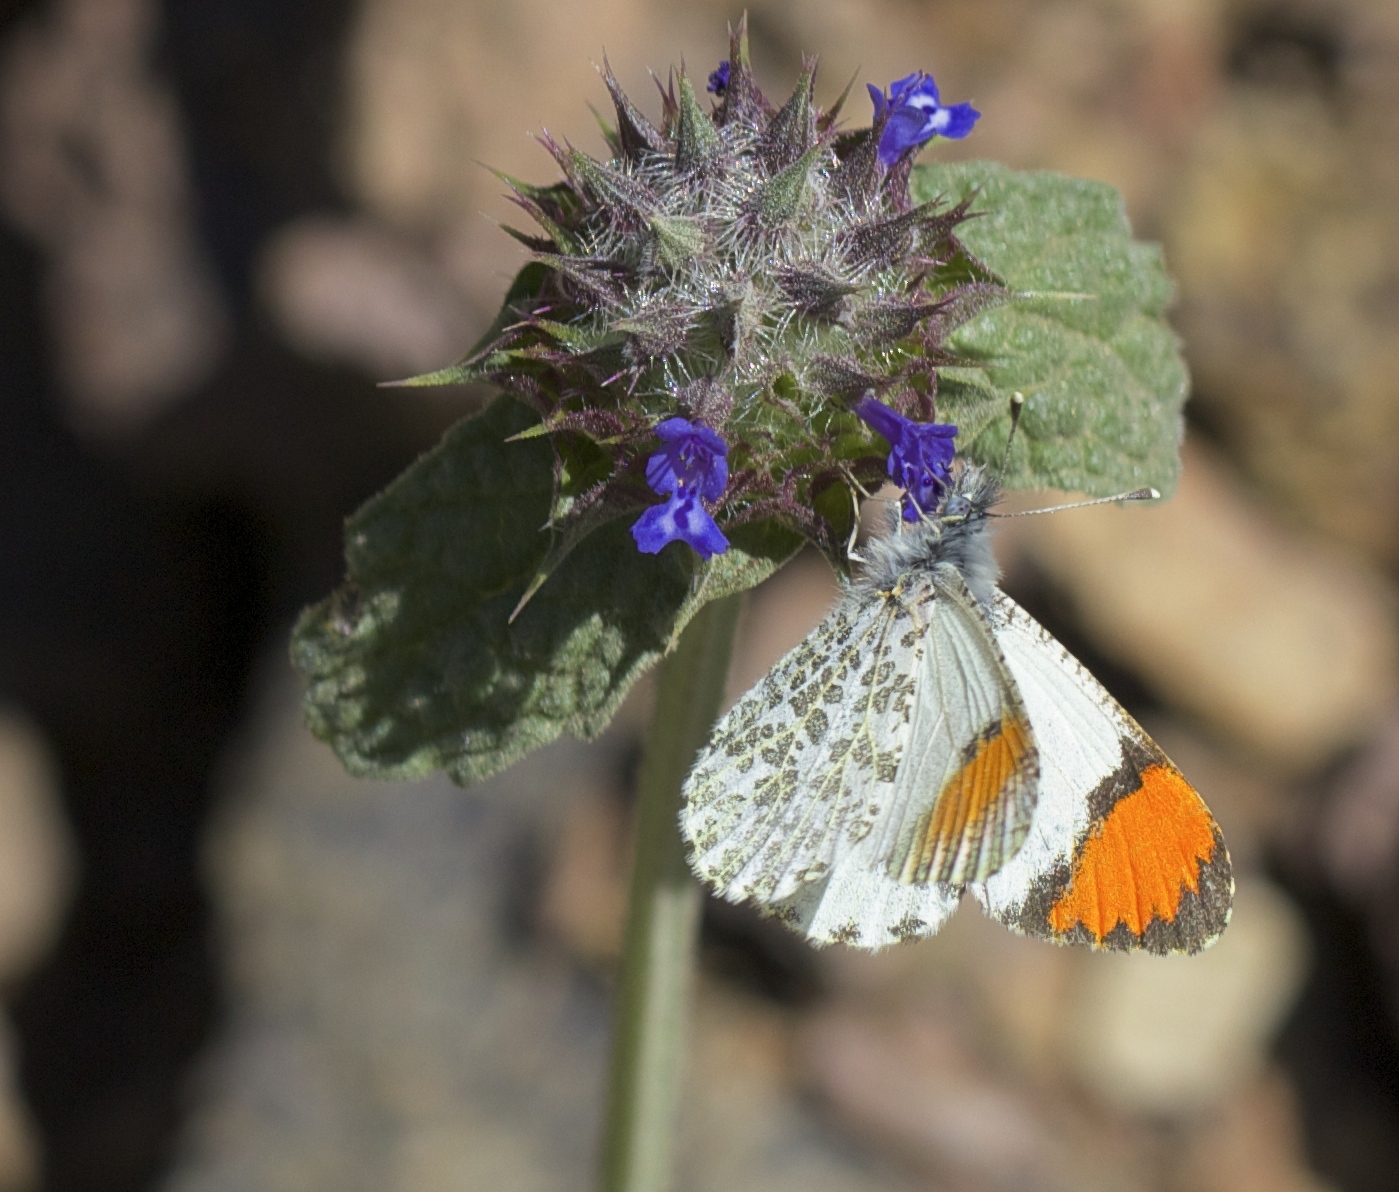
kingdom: Animalia
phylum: Arthropoda
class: Insecta
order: Lepidoptera
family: Pieridae
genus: Anthocharis
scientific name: Anthocharis sara
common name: Sara's orangetip
